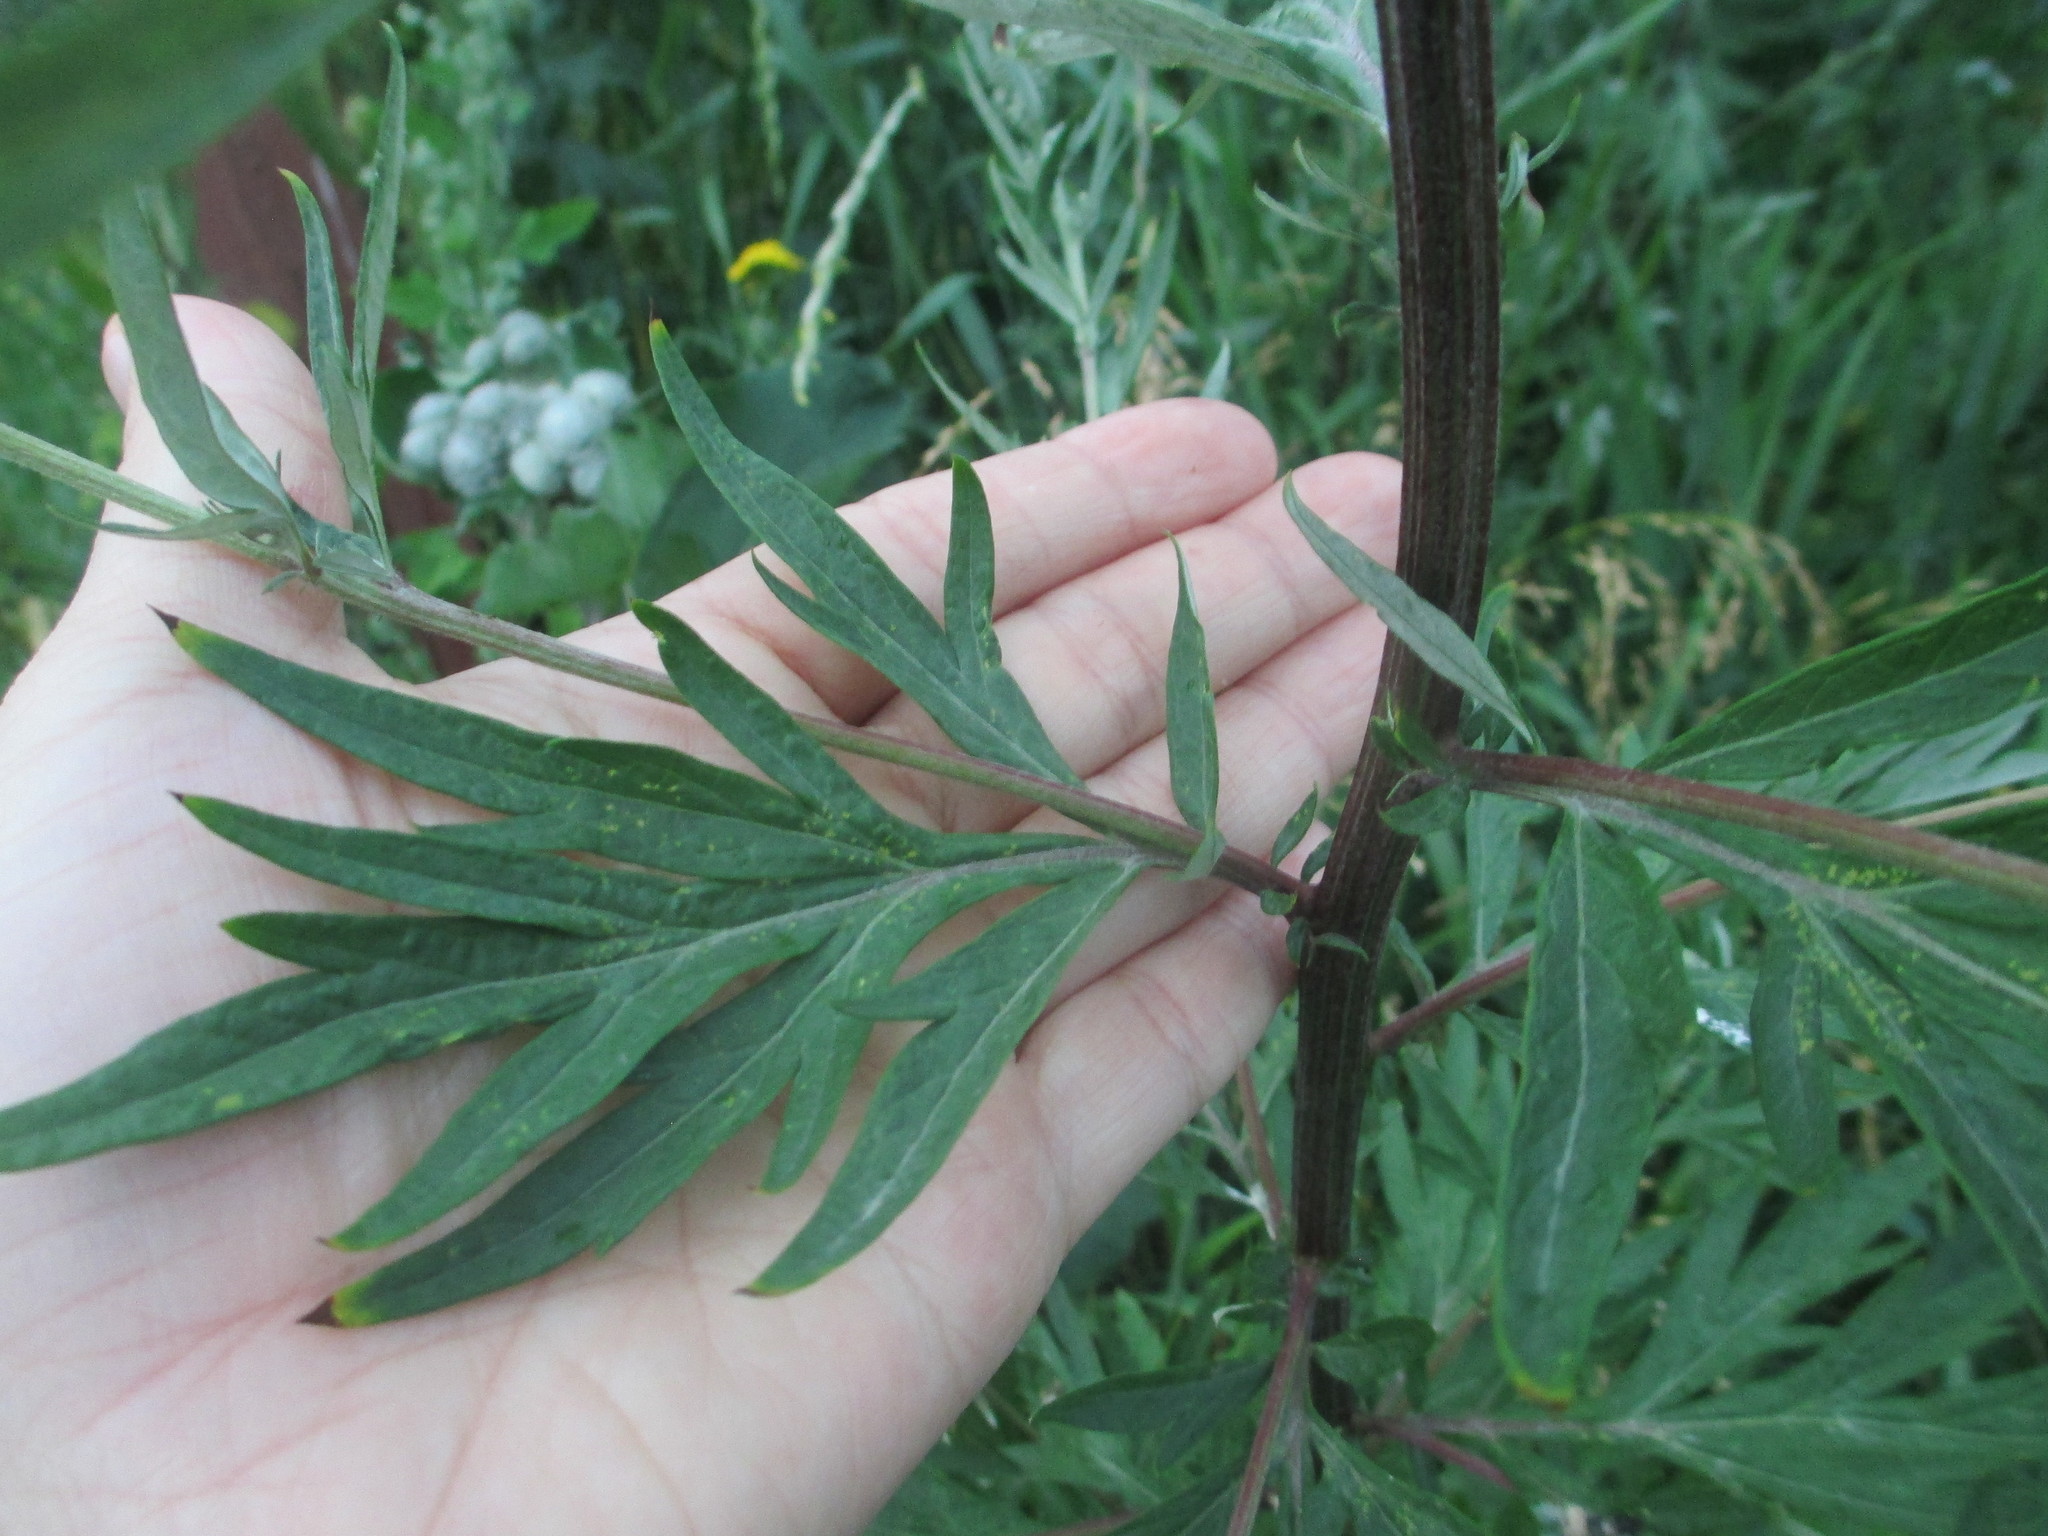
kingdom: Plantae
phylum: Tracheophyta
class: Magnoliopsida
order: Asterales
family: Asteraceae
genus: Artemisia
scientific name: Artemisia vulgaris
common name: Mugwort
